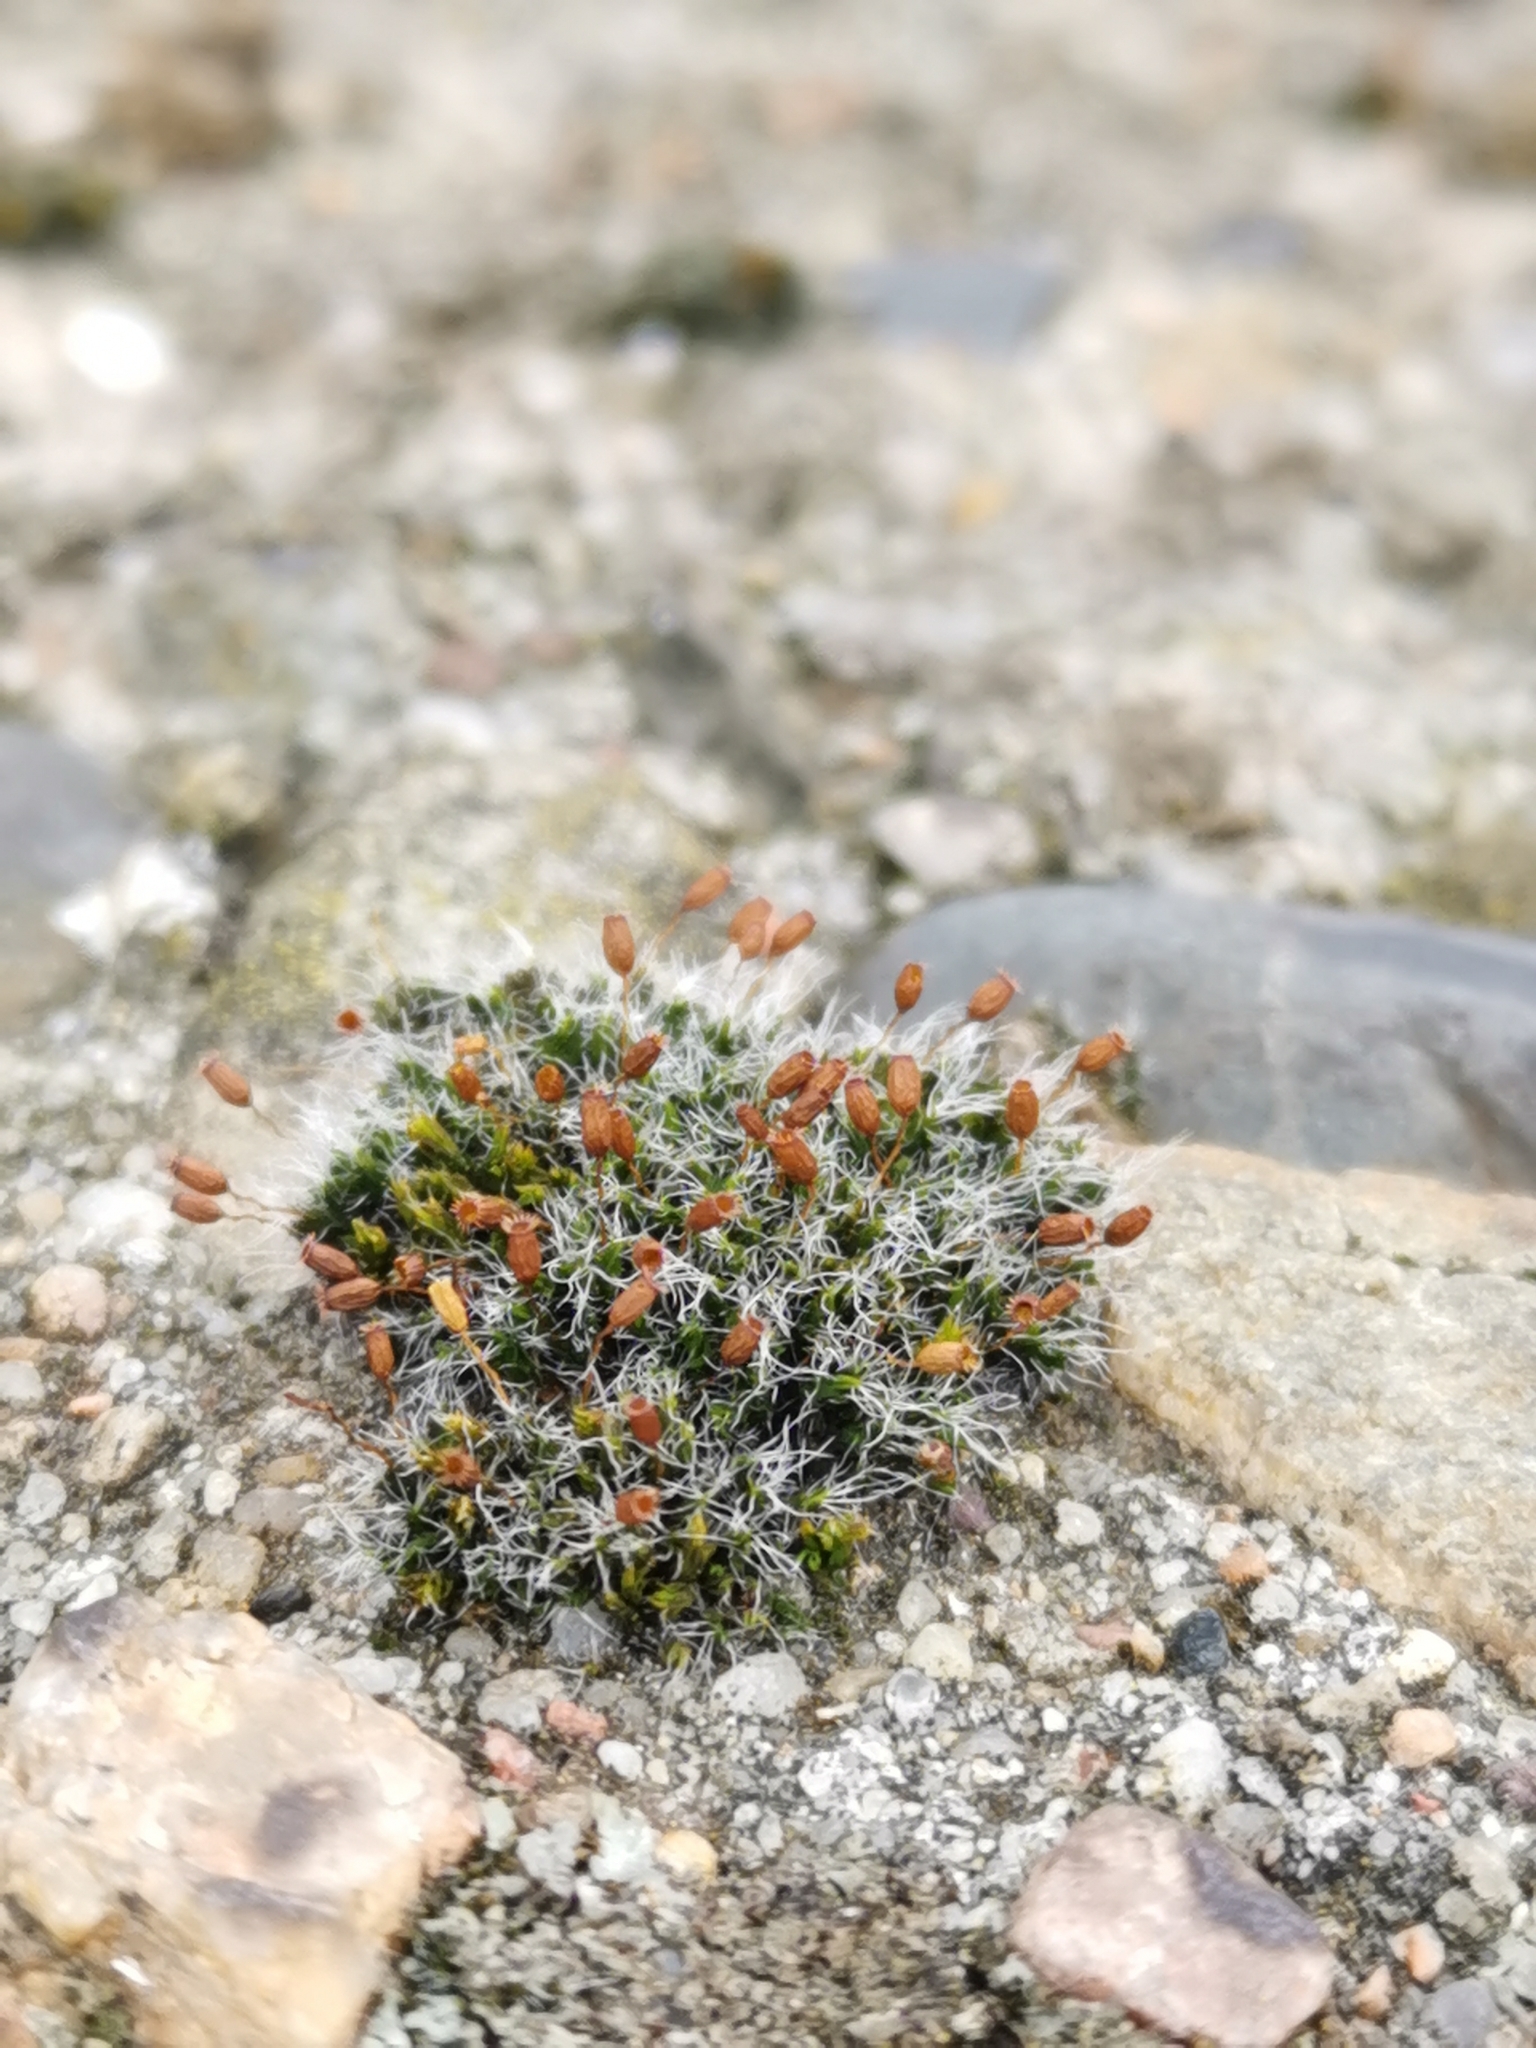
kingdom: Plantae
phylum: Bryophyta
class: Bryopsida
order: Grimmiales
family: Grimmiaceae
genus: Grimmia
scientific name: Grimmia pulvinata
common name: Grey-cushioned grimmia
